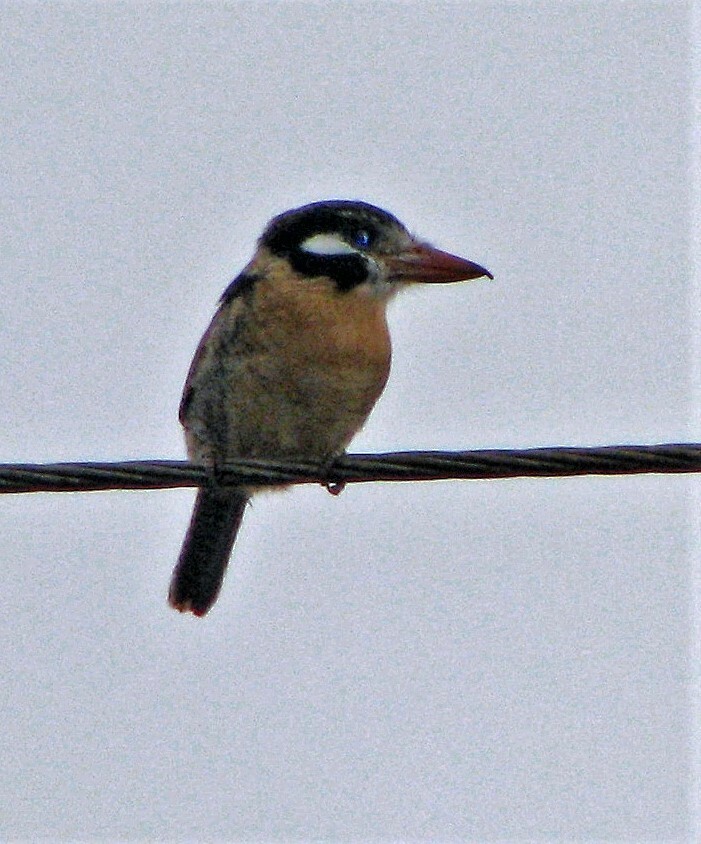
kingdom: Animalia
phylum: Chordata
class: Aves
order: Piciformes
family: Bucconidae
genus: Nystalus
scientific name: Nystalus chacuru
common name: White-eared puffbird
